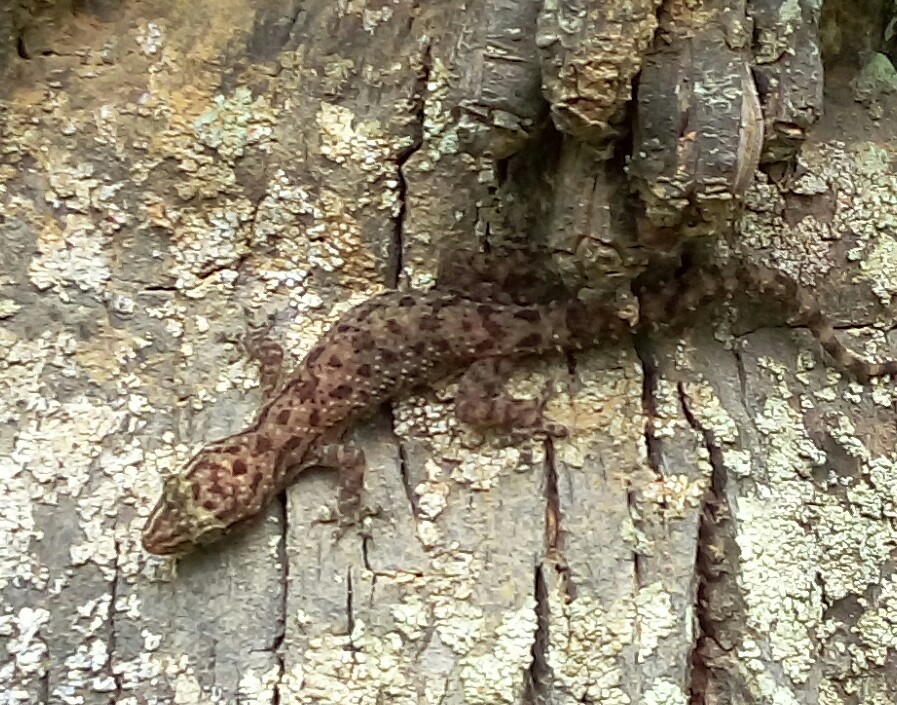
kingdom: Animalia
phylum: Chordata
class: Squamata
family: Gekkonidae
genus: Hemidactylus
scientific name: Hemidactylus parvimaculatus
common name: Spotted house gecko
